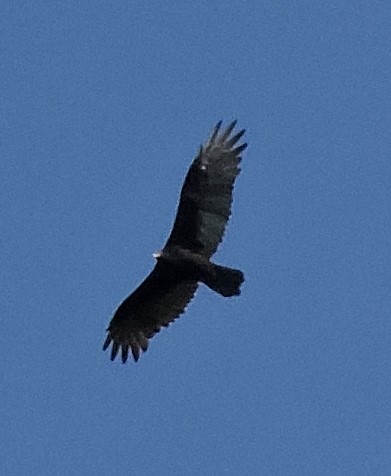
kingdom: Animalia
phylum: Chordata
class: Aves
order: Accipitriformes
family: Cathartidae
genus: Cathartes
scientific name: Cathartes aura
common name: Turkey vulture
